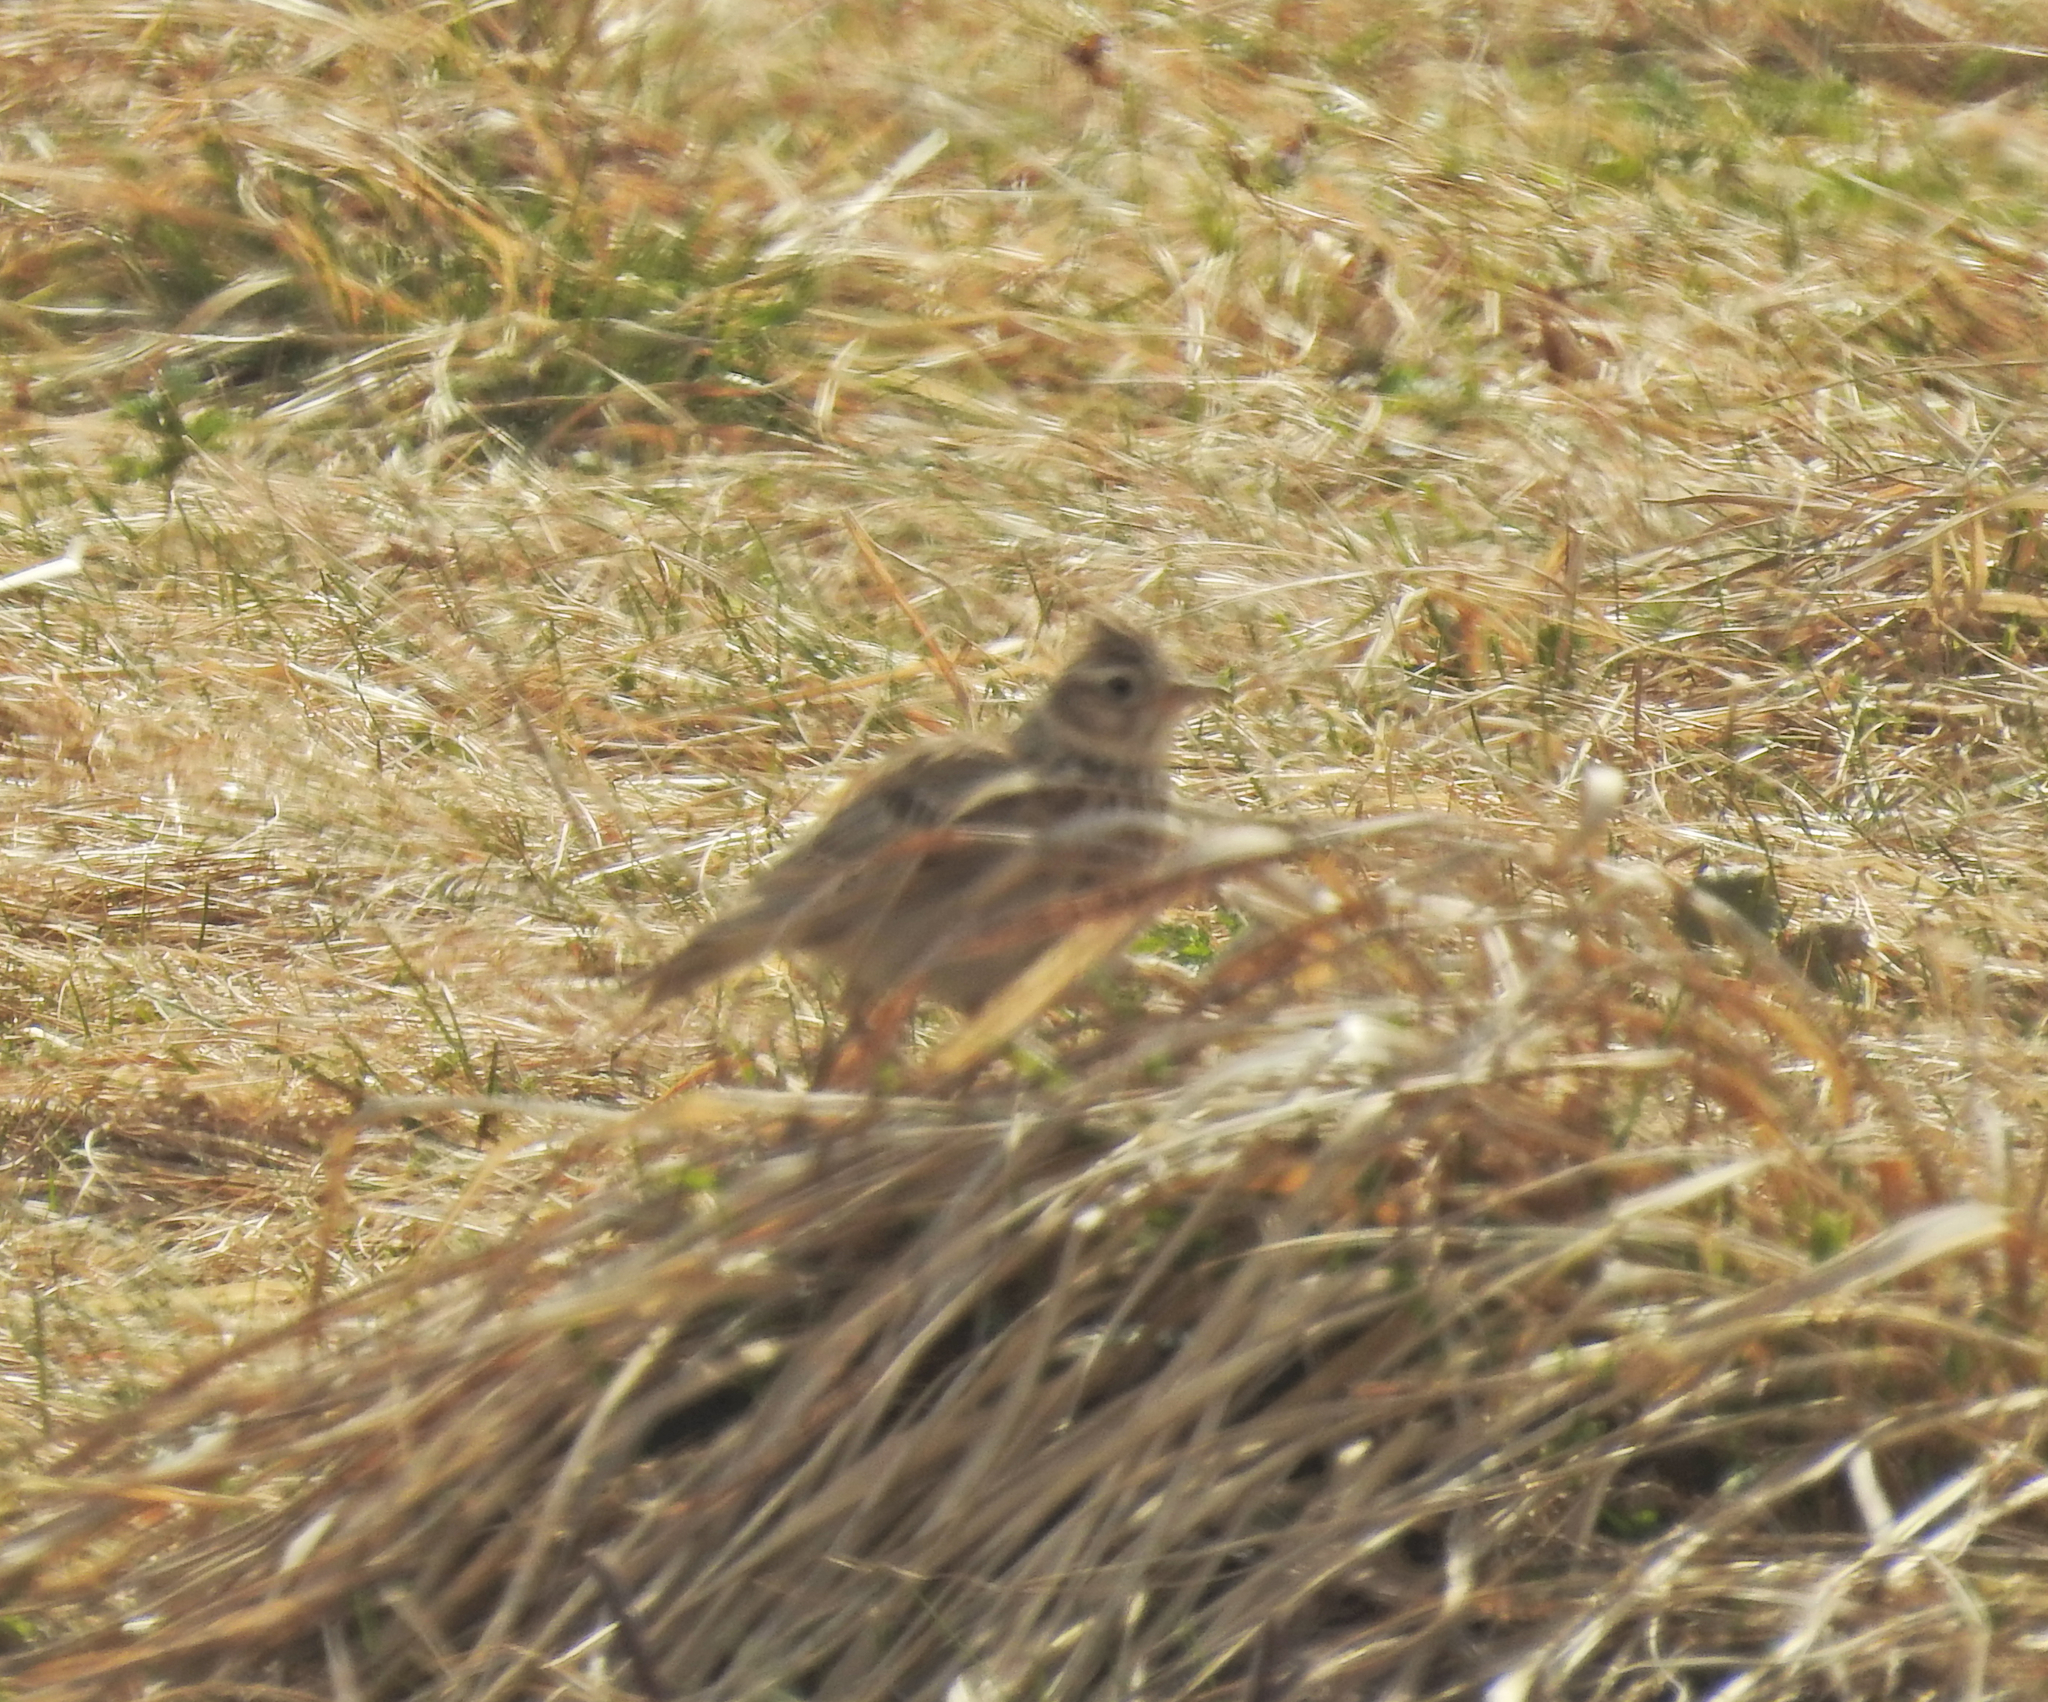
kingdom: Animalia
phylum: Chordata
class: Aves
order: Passeriformes
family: Alaudidae
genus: Alauda
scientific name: Alauda arvensis
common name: Eurasian skylark
